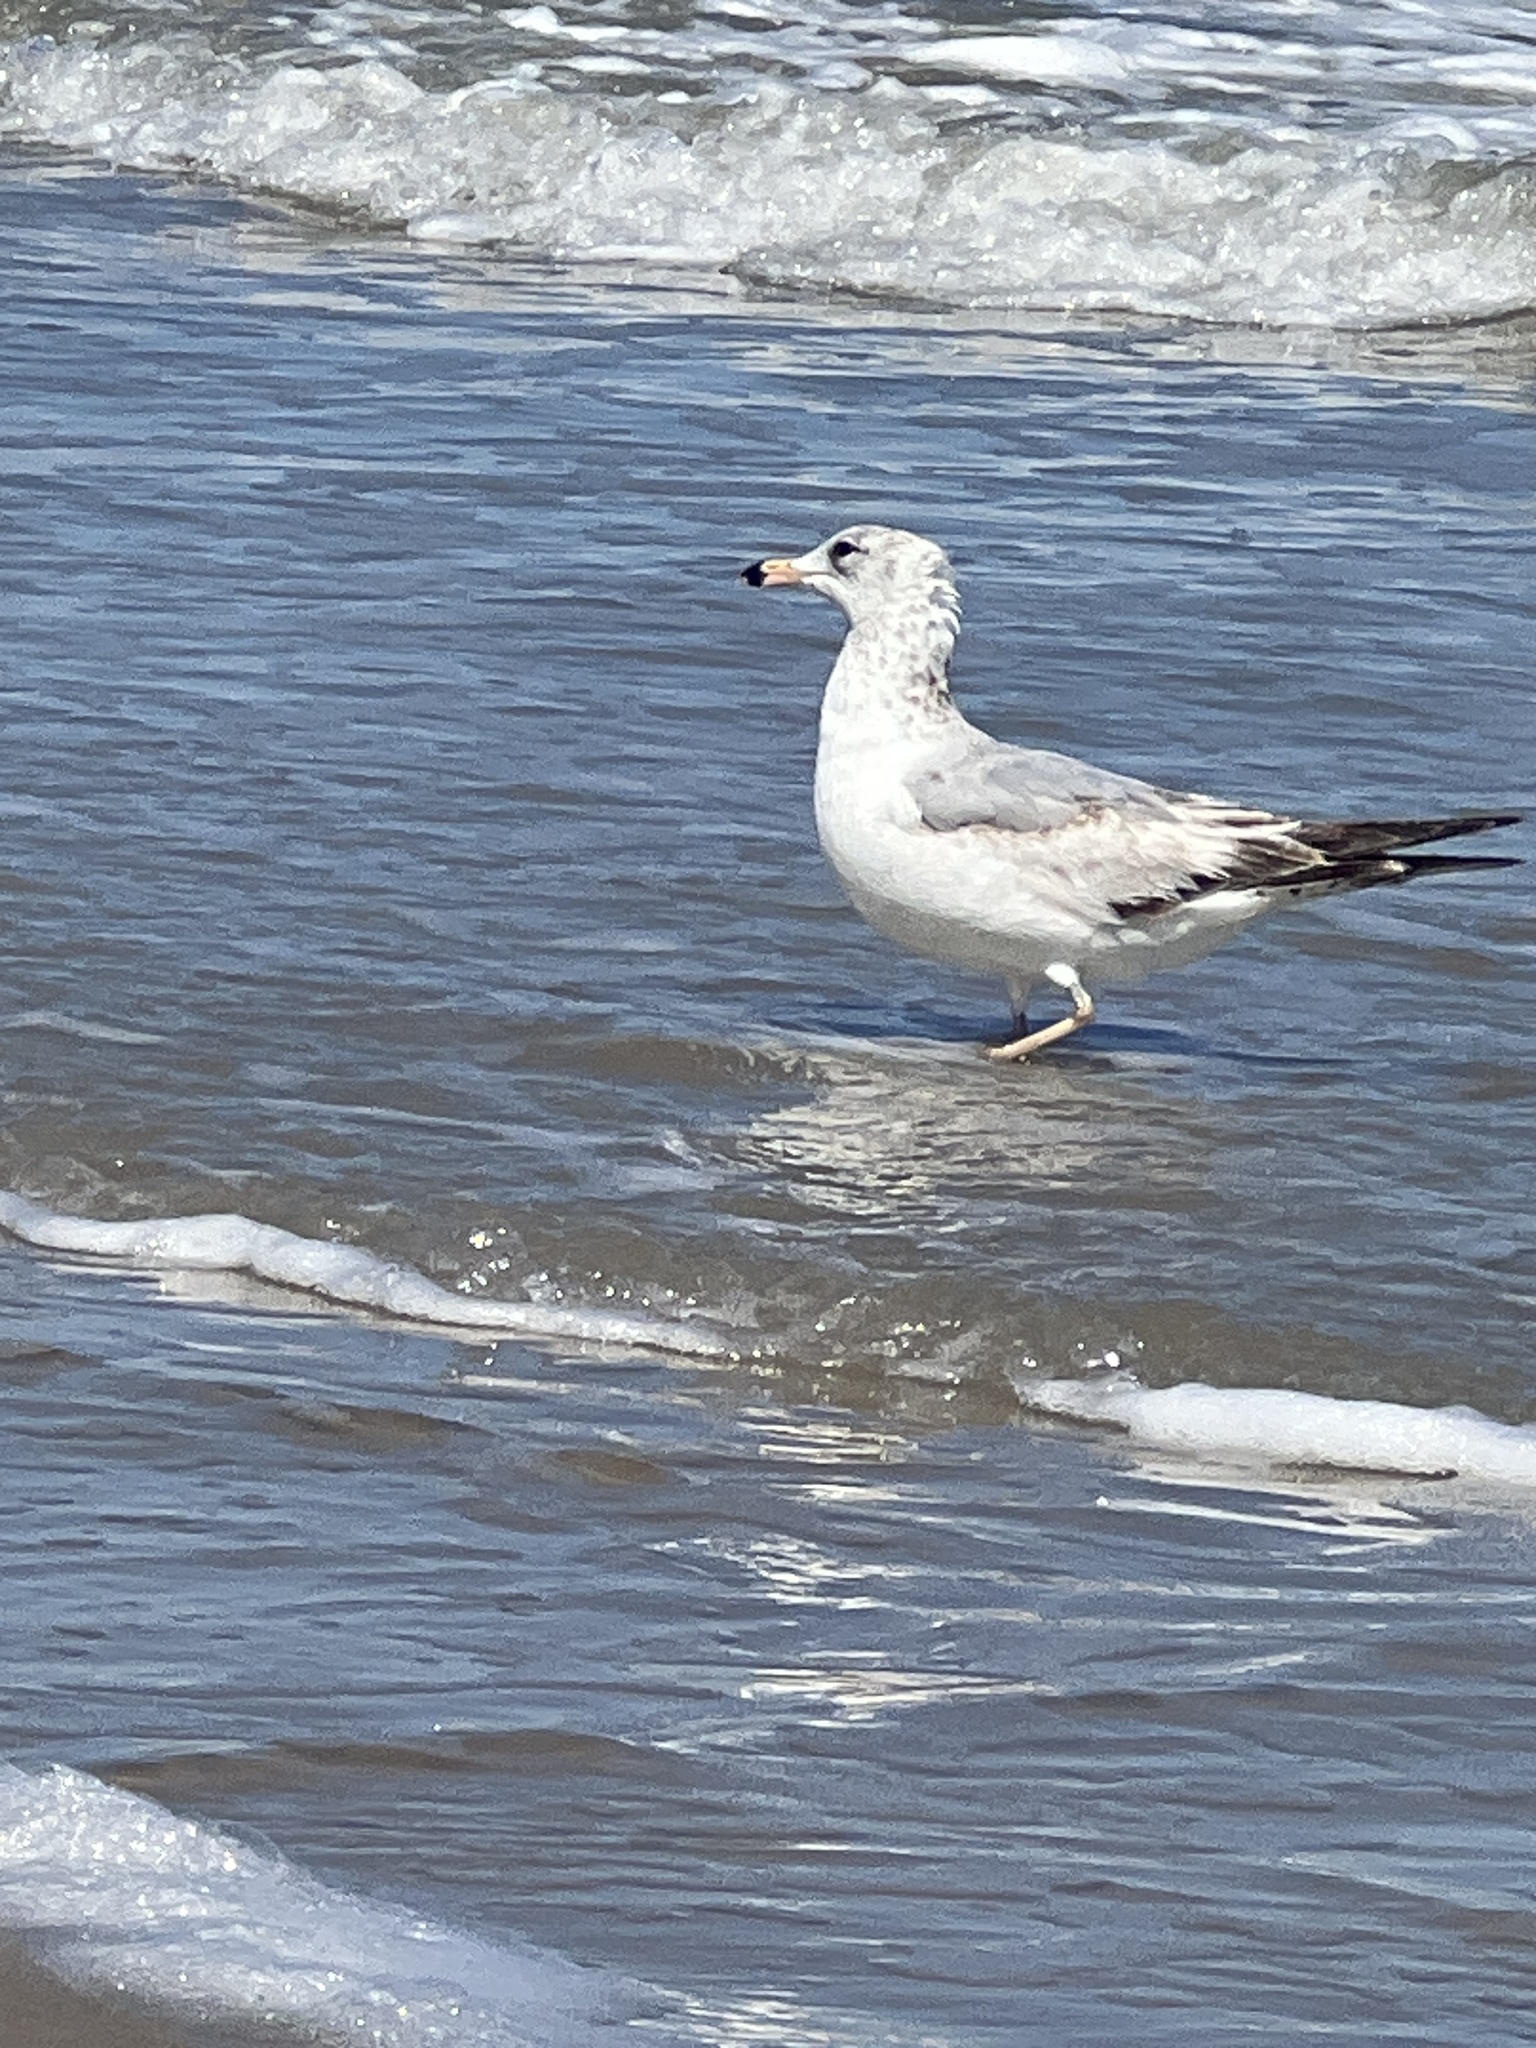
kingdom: Animalia
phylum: Chordata
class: Aves
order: Charadriiformes
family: Laridae
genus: Larus
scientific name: Larus delawarensis
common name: Ring-billed gull
